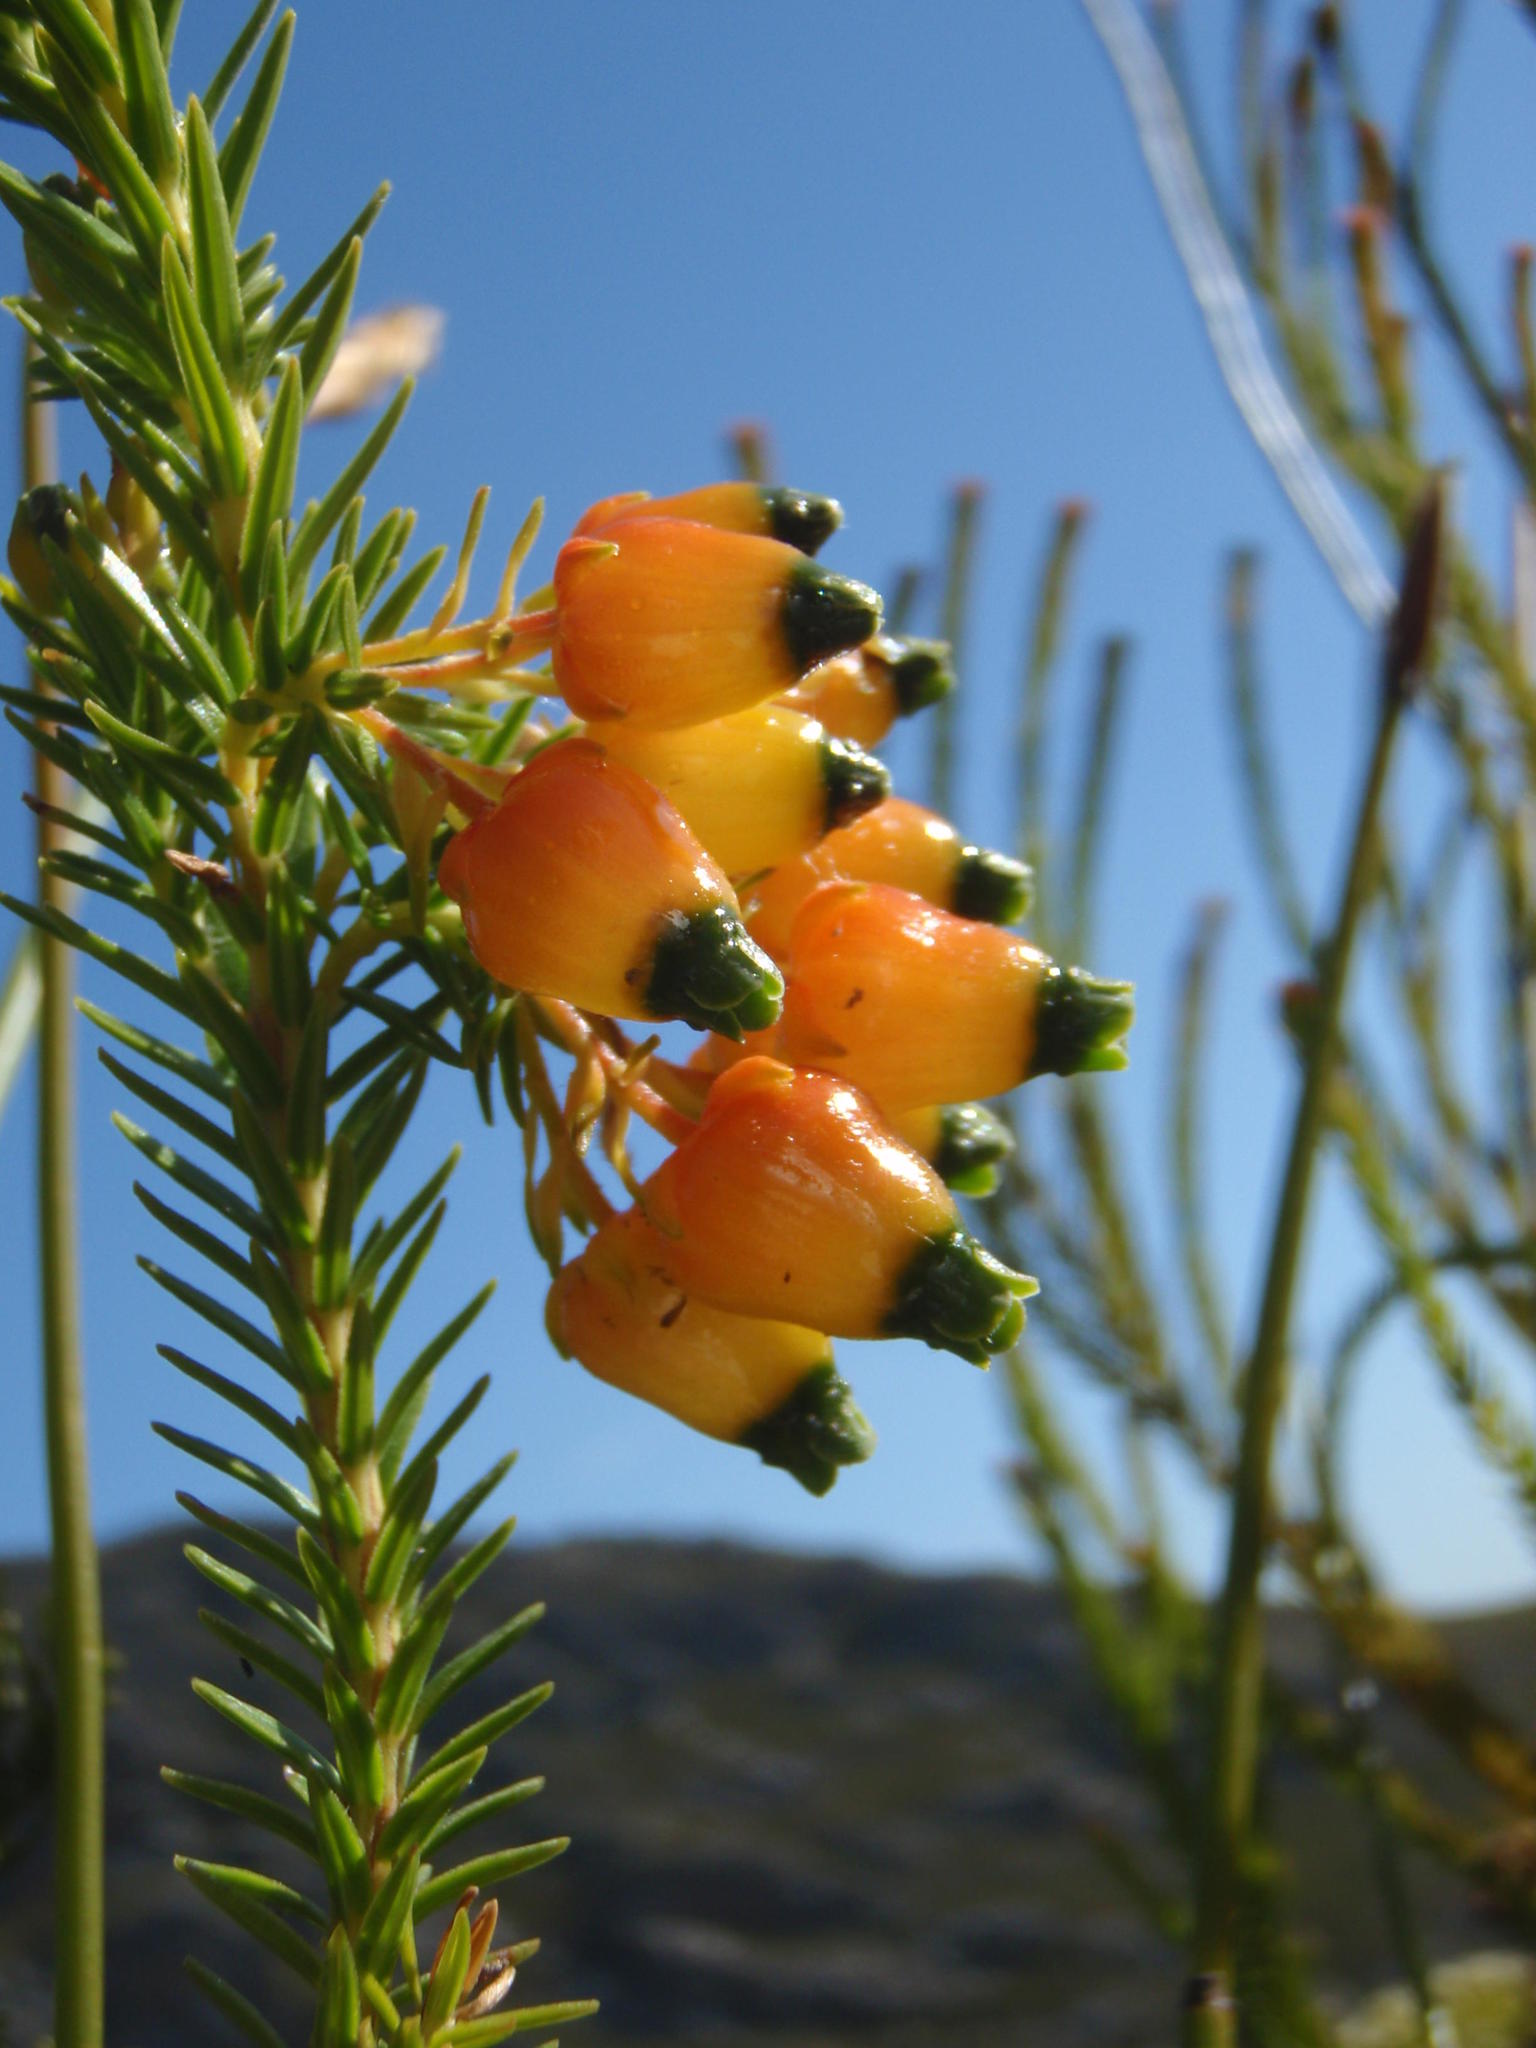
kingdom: Plantae
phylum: Tracheophyta
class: Magnoliopsida
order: Ericales
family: Ericaceae
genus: Erica
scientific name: Erica blenna
